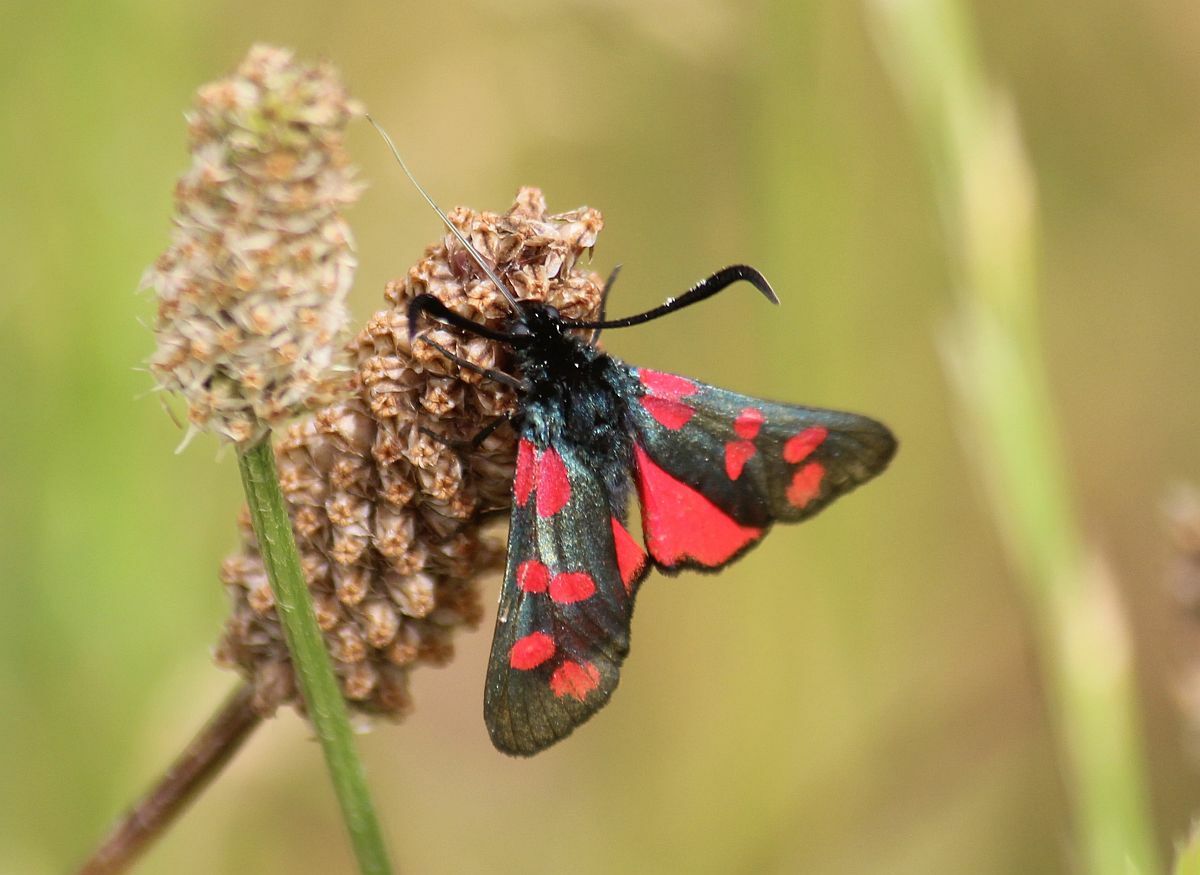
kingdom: Animalia
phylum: Arthropoda
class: Insecta
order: Lepidoptera
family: Zygaenidae
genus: Zygaena
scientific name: Zygaena filipendulae
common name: Six-spot burnet
